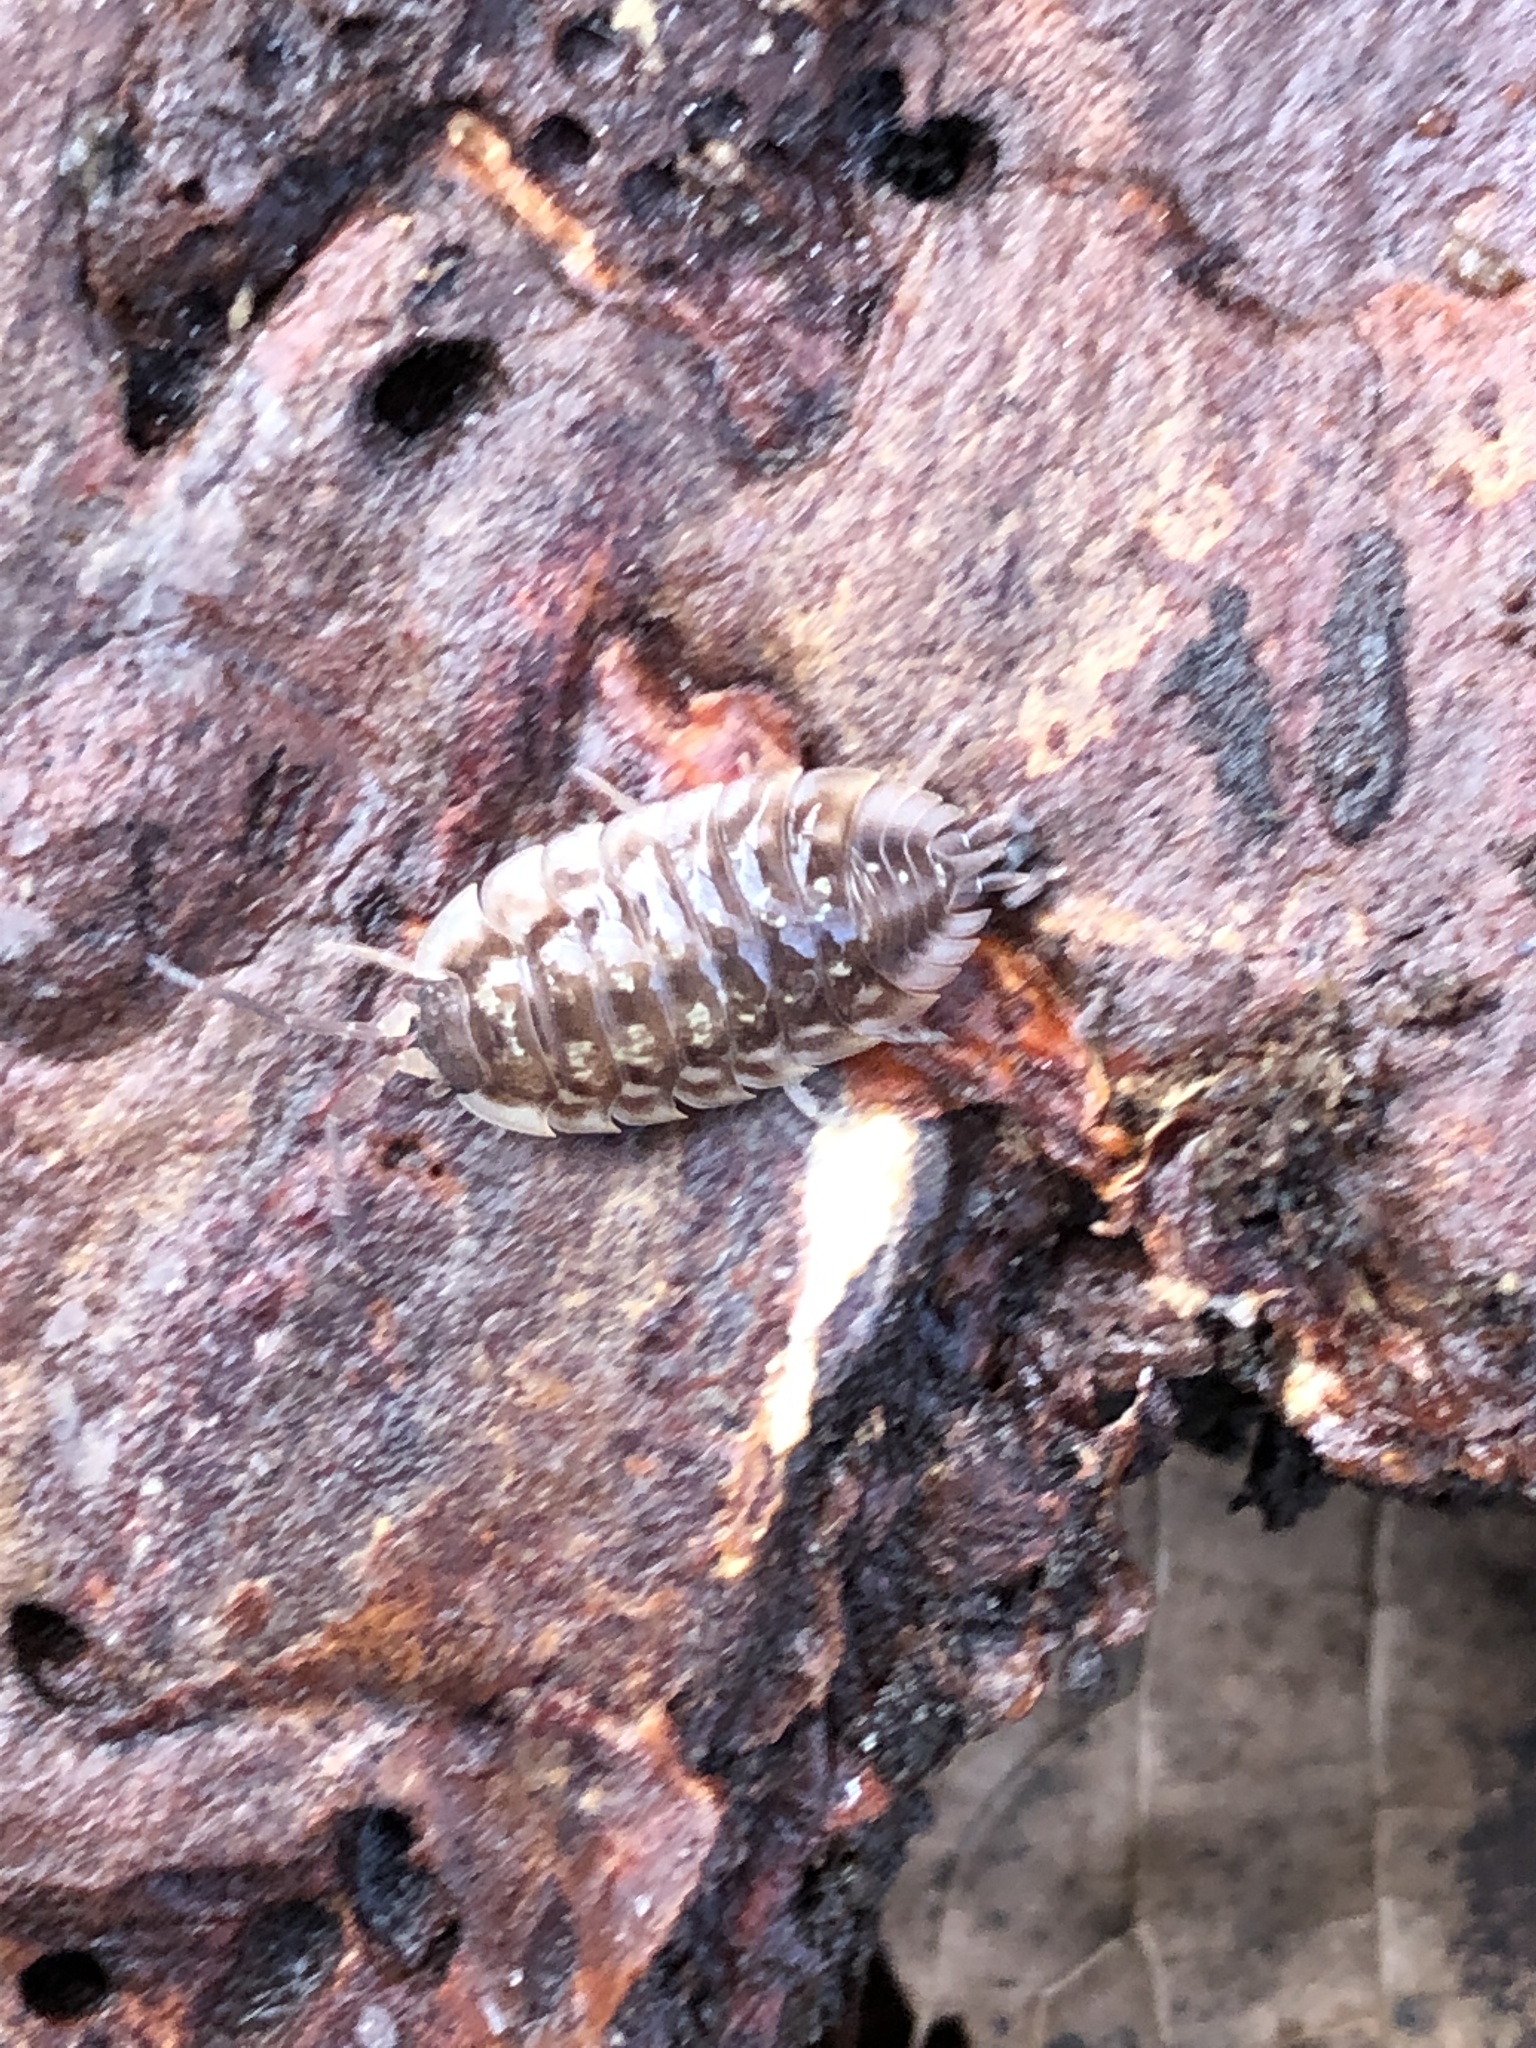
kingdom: Animalia
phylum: Arthropoda
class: Malacostraca
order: Isopoda
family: Oniscidae
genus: Oniscus
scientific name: Oniscus asellus
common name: Common shiny woodlouse
